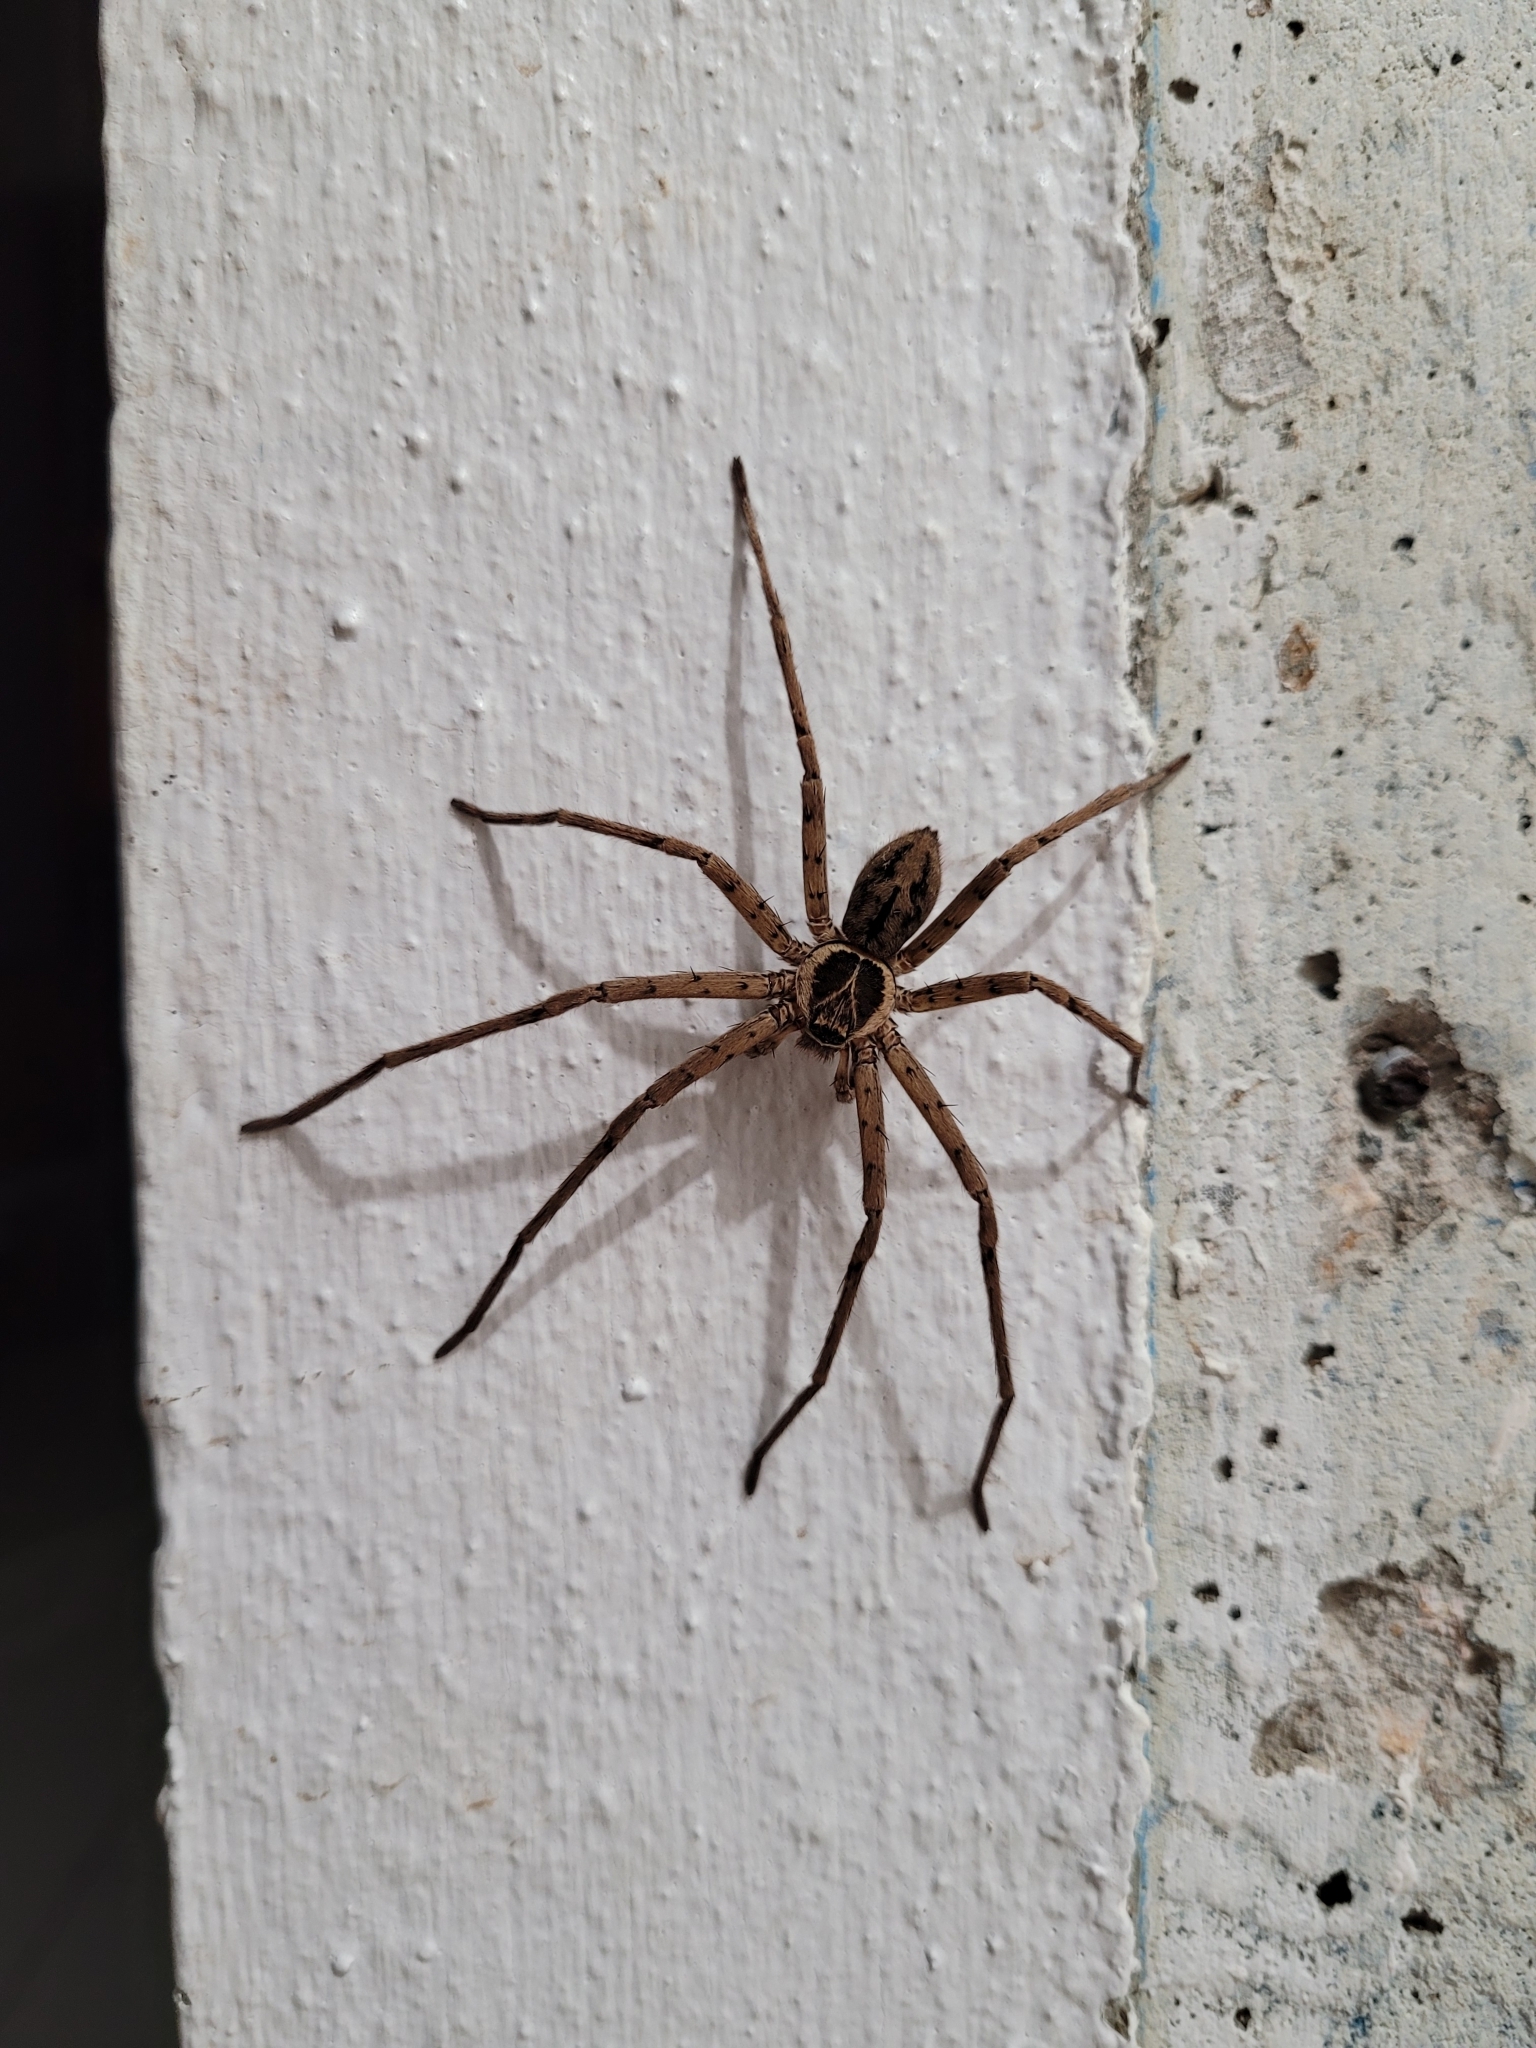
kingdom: Animalia
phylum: Arthropoda
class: Arachnida
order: Araneae
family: Sparassidae
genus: Heteropoda
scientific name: Heteropoda venatoria
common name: Huntsman spider
